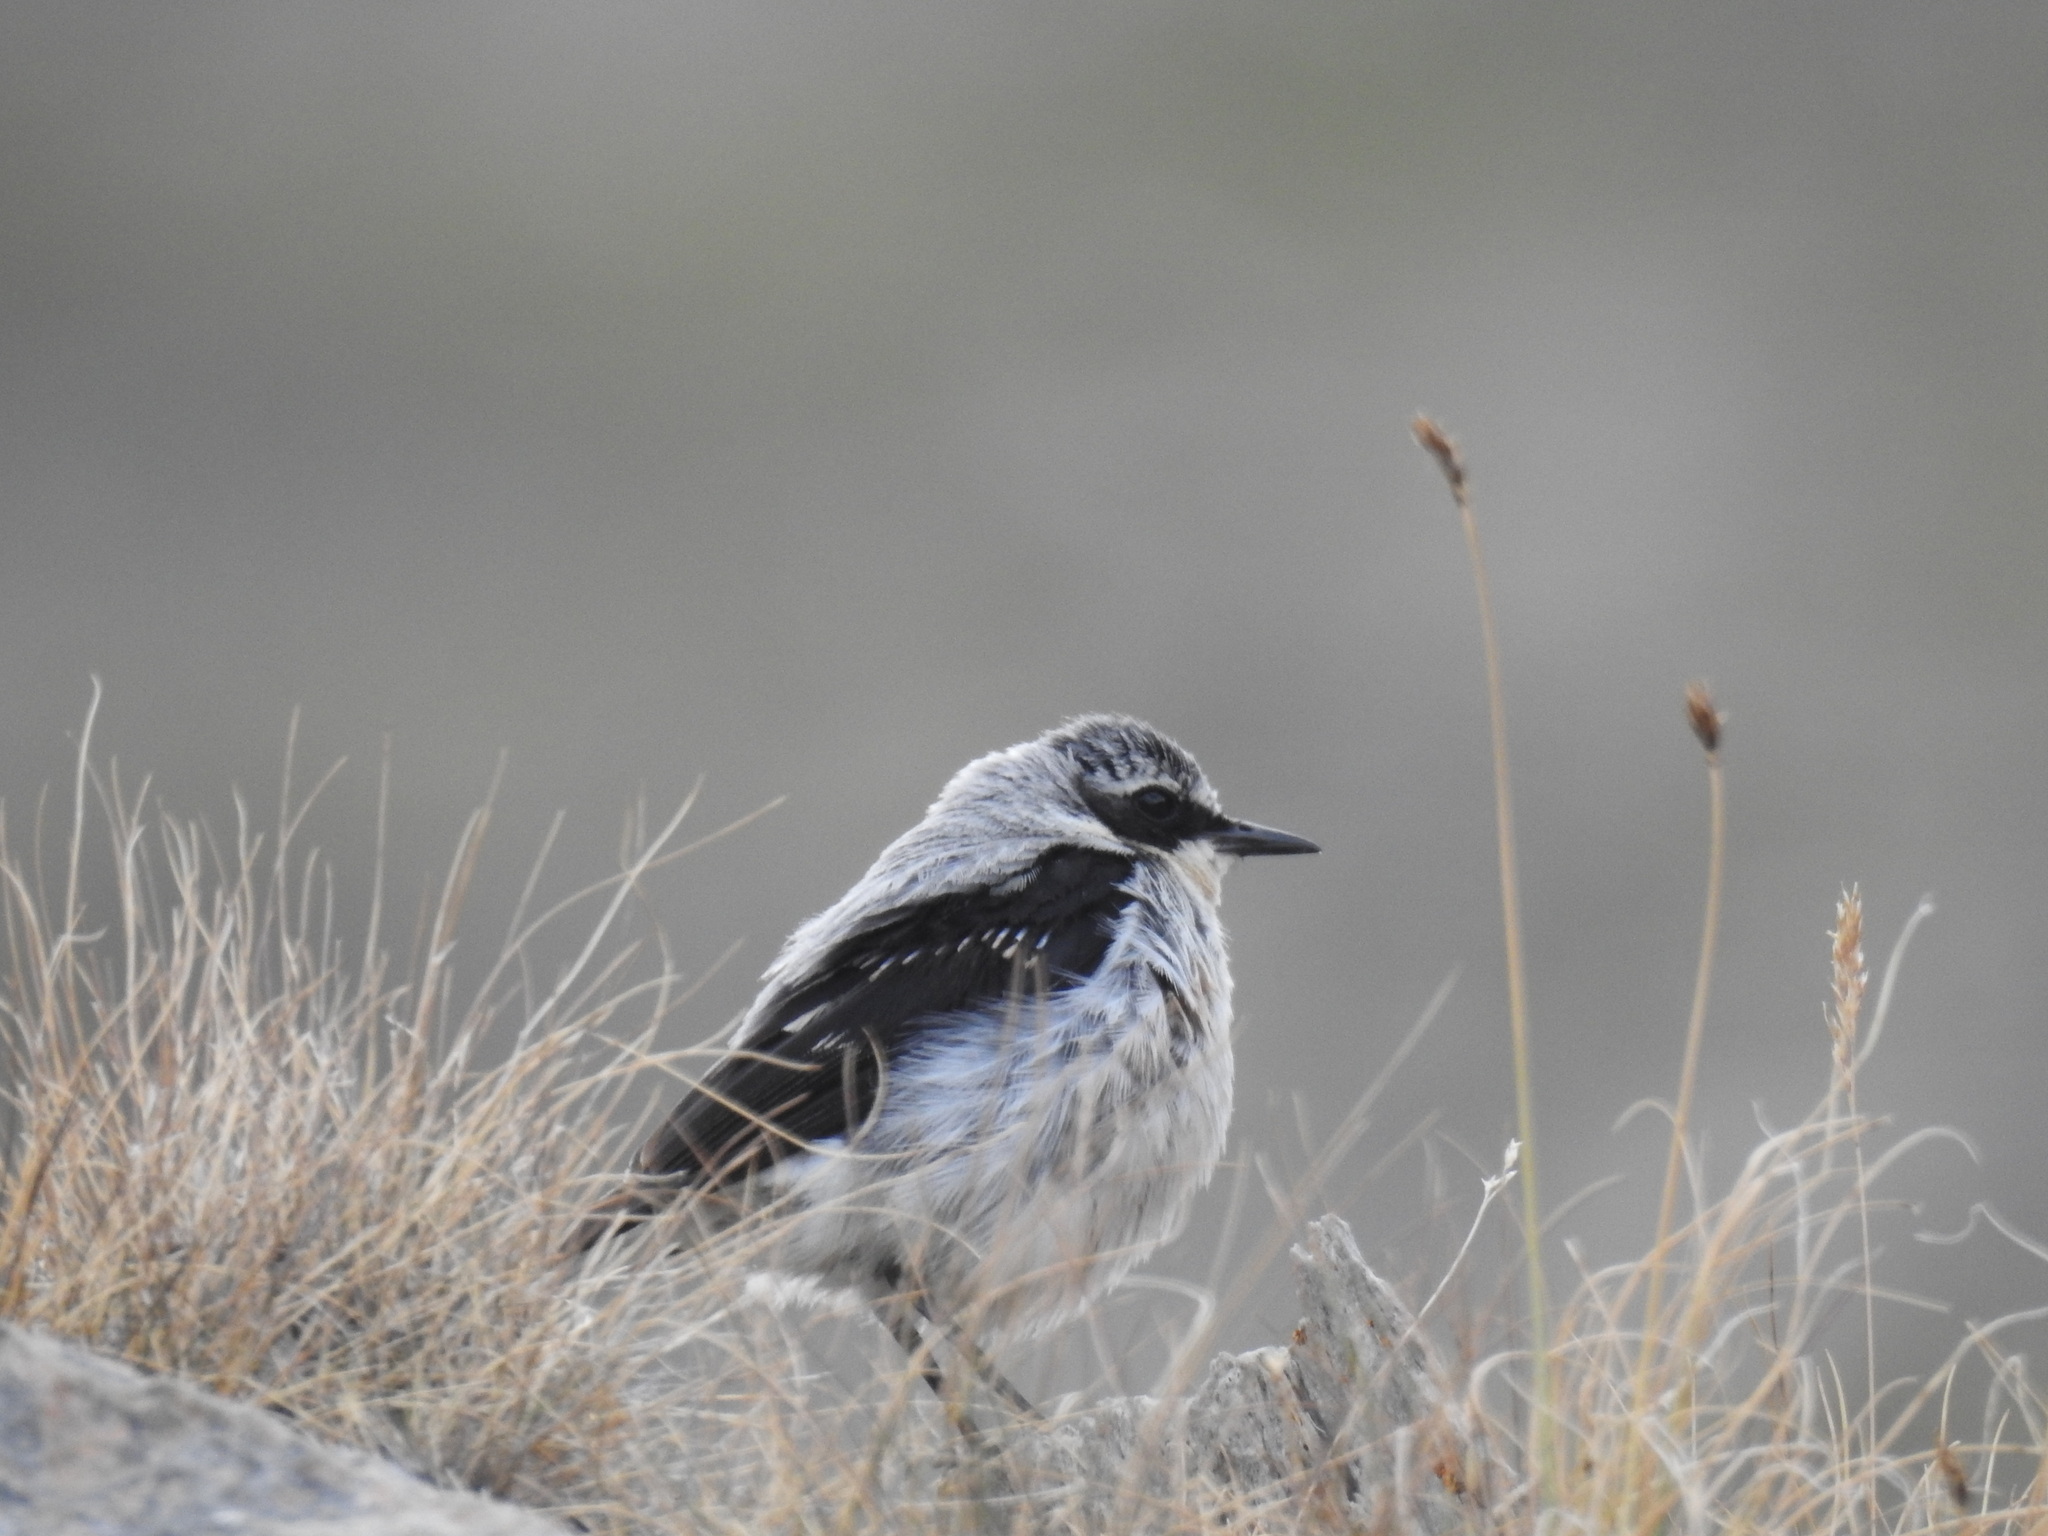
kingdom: Animalia
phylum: Chordata
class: Aves
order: Passeriformes
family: Muscicapidae
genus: Oenanthe
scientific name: Oenanthe oenanthe
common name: Northern wheatear
